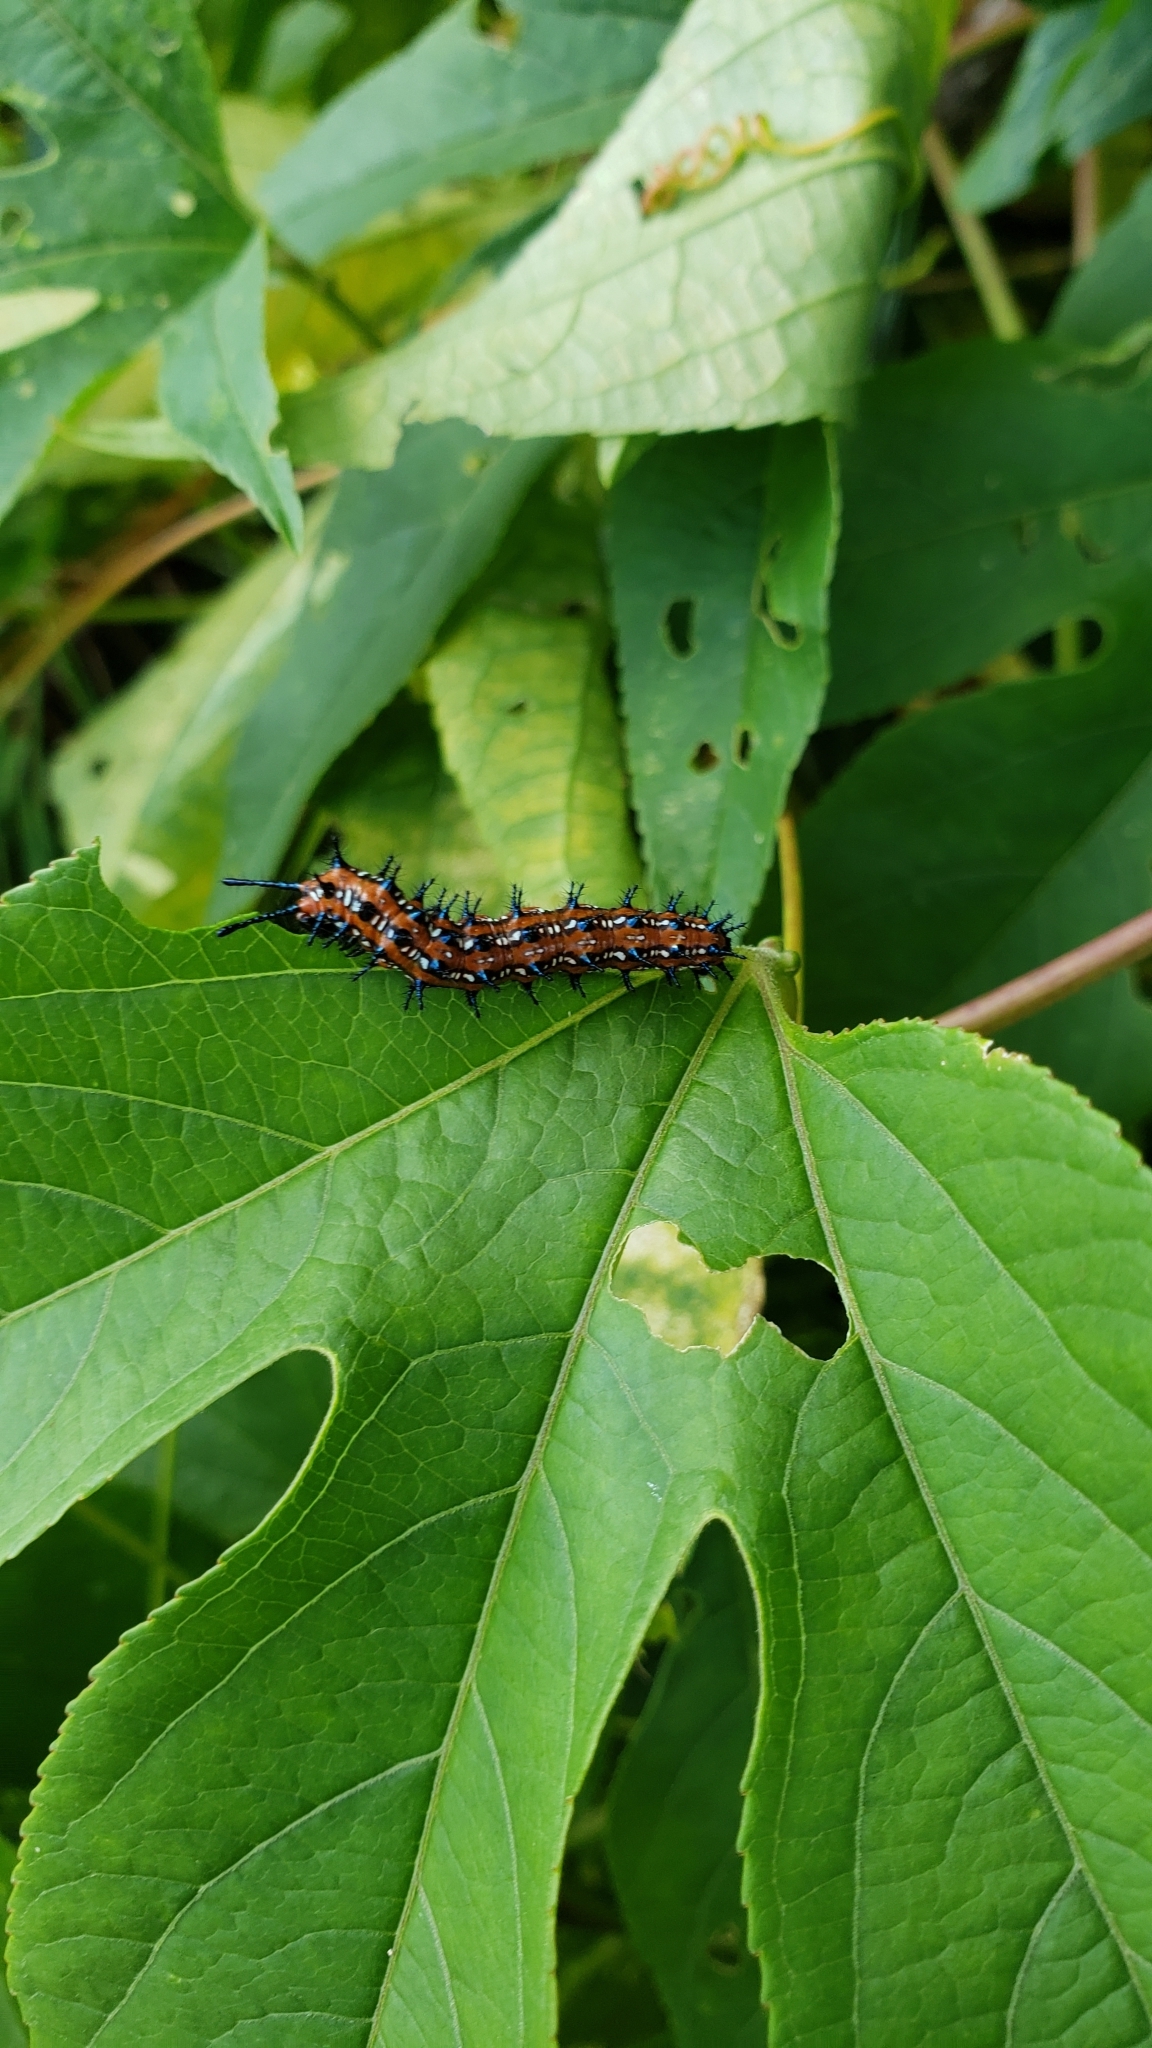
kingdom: Animalia
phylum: Arthropoda
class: Insecta
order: Lepidoptera
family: Nymphalidae
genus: Euptoieta
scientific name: Euptoieta claudia
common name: Variegated fritillary
